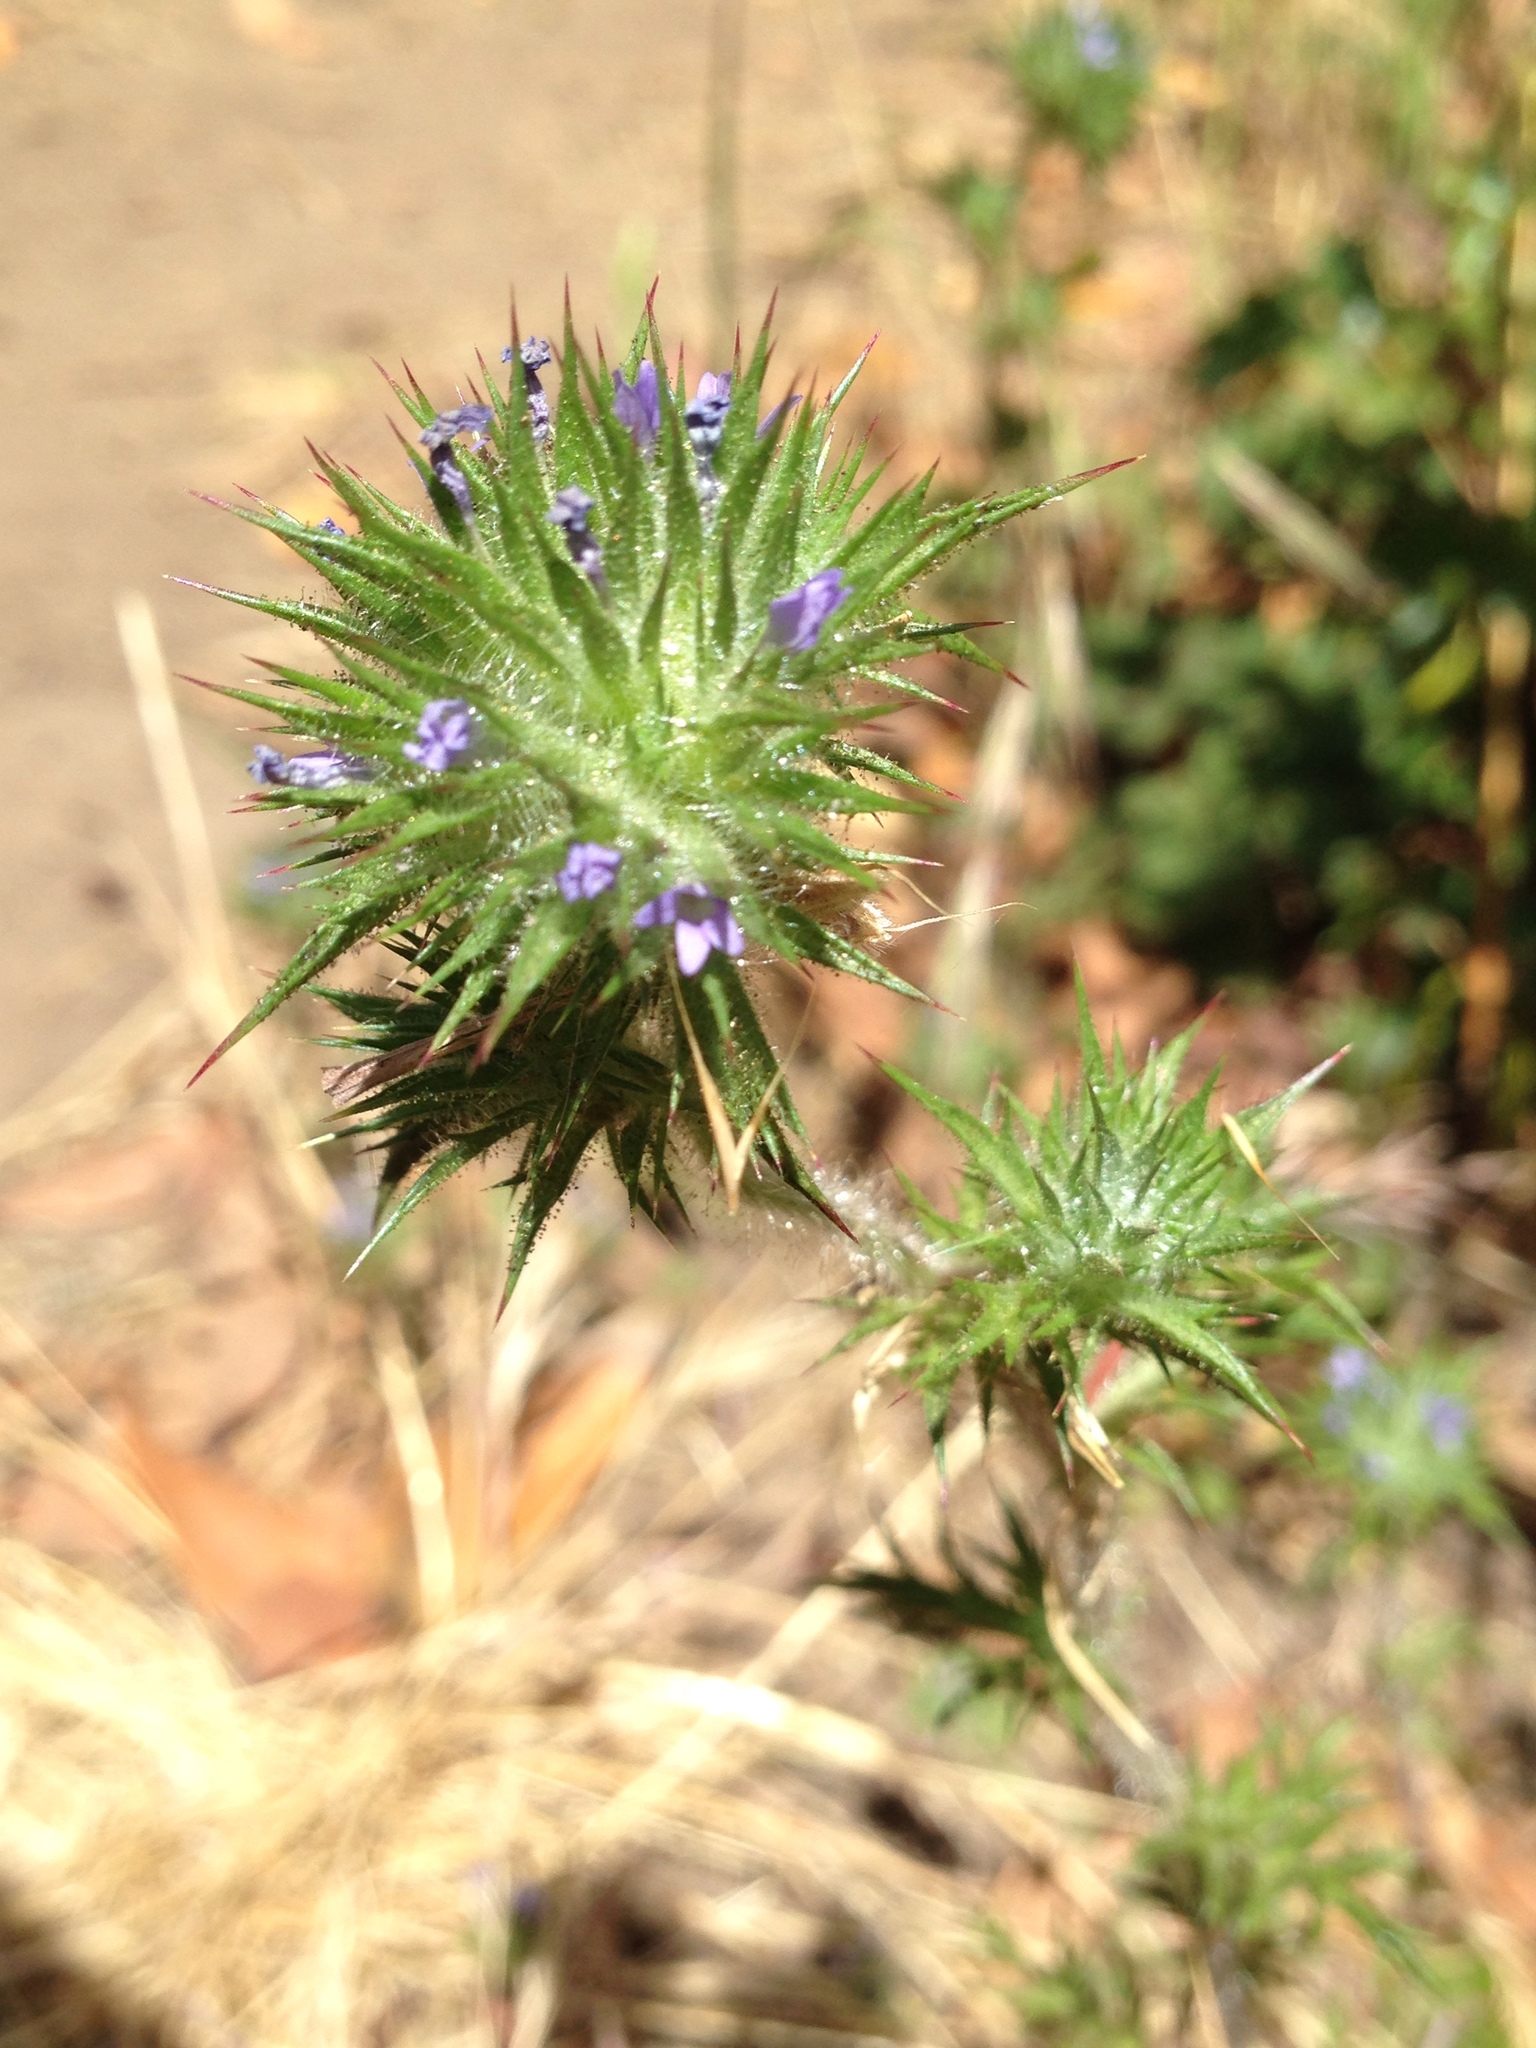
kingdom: Plantae
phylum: Tracheophyta
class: Magnoliopsida
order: Ericales
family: Polemoniaceae
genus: Navarretia
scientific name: Navarretia squarrosa
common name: Skunkweed
